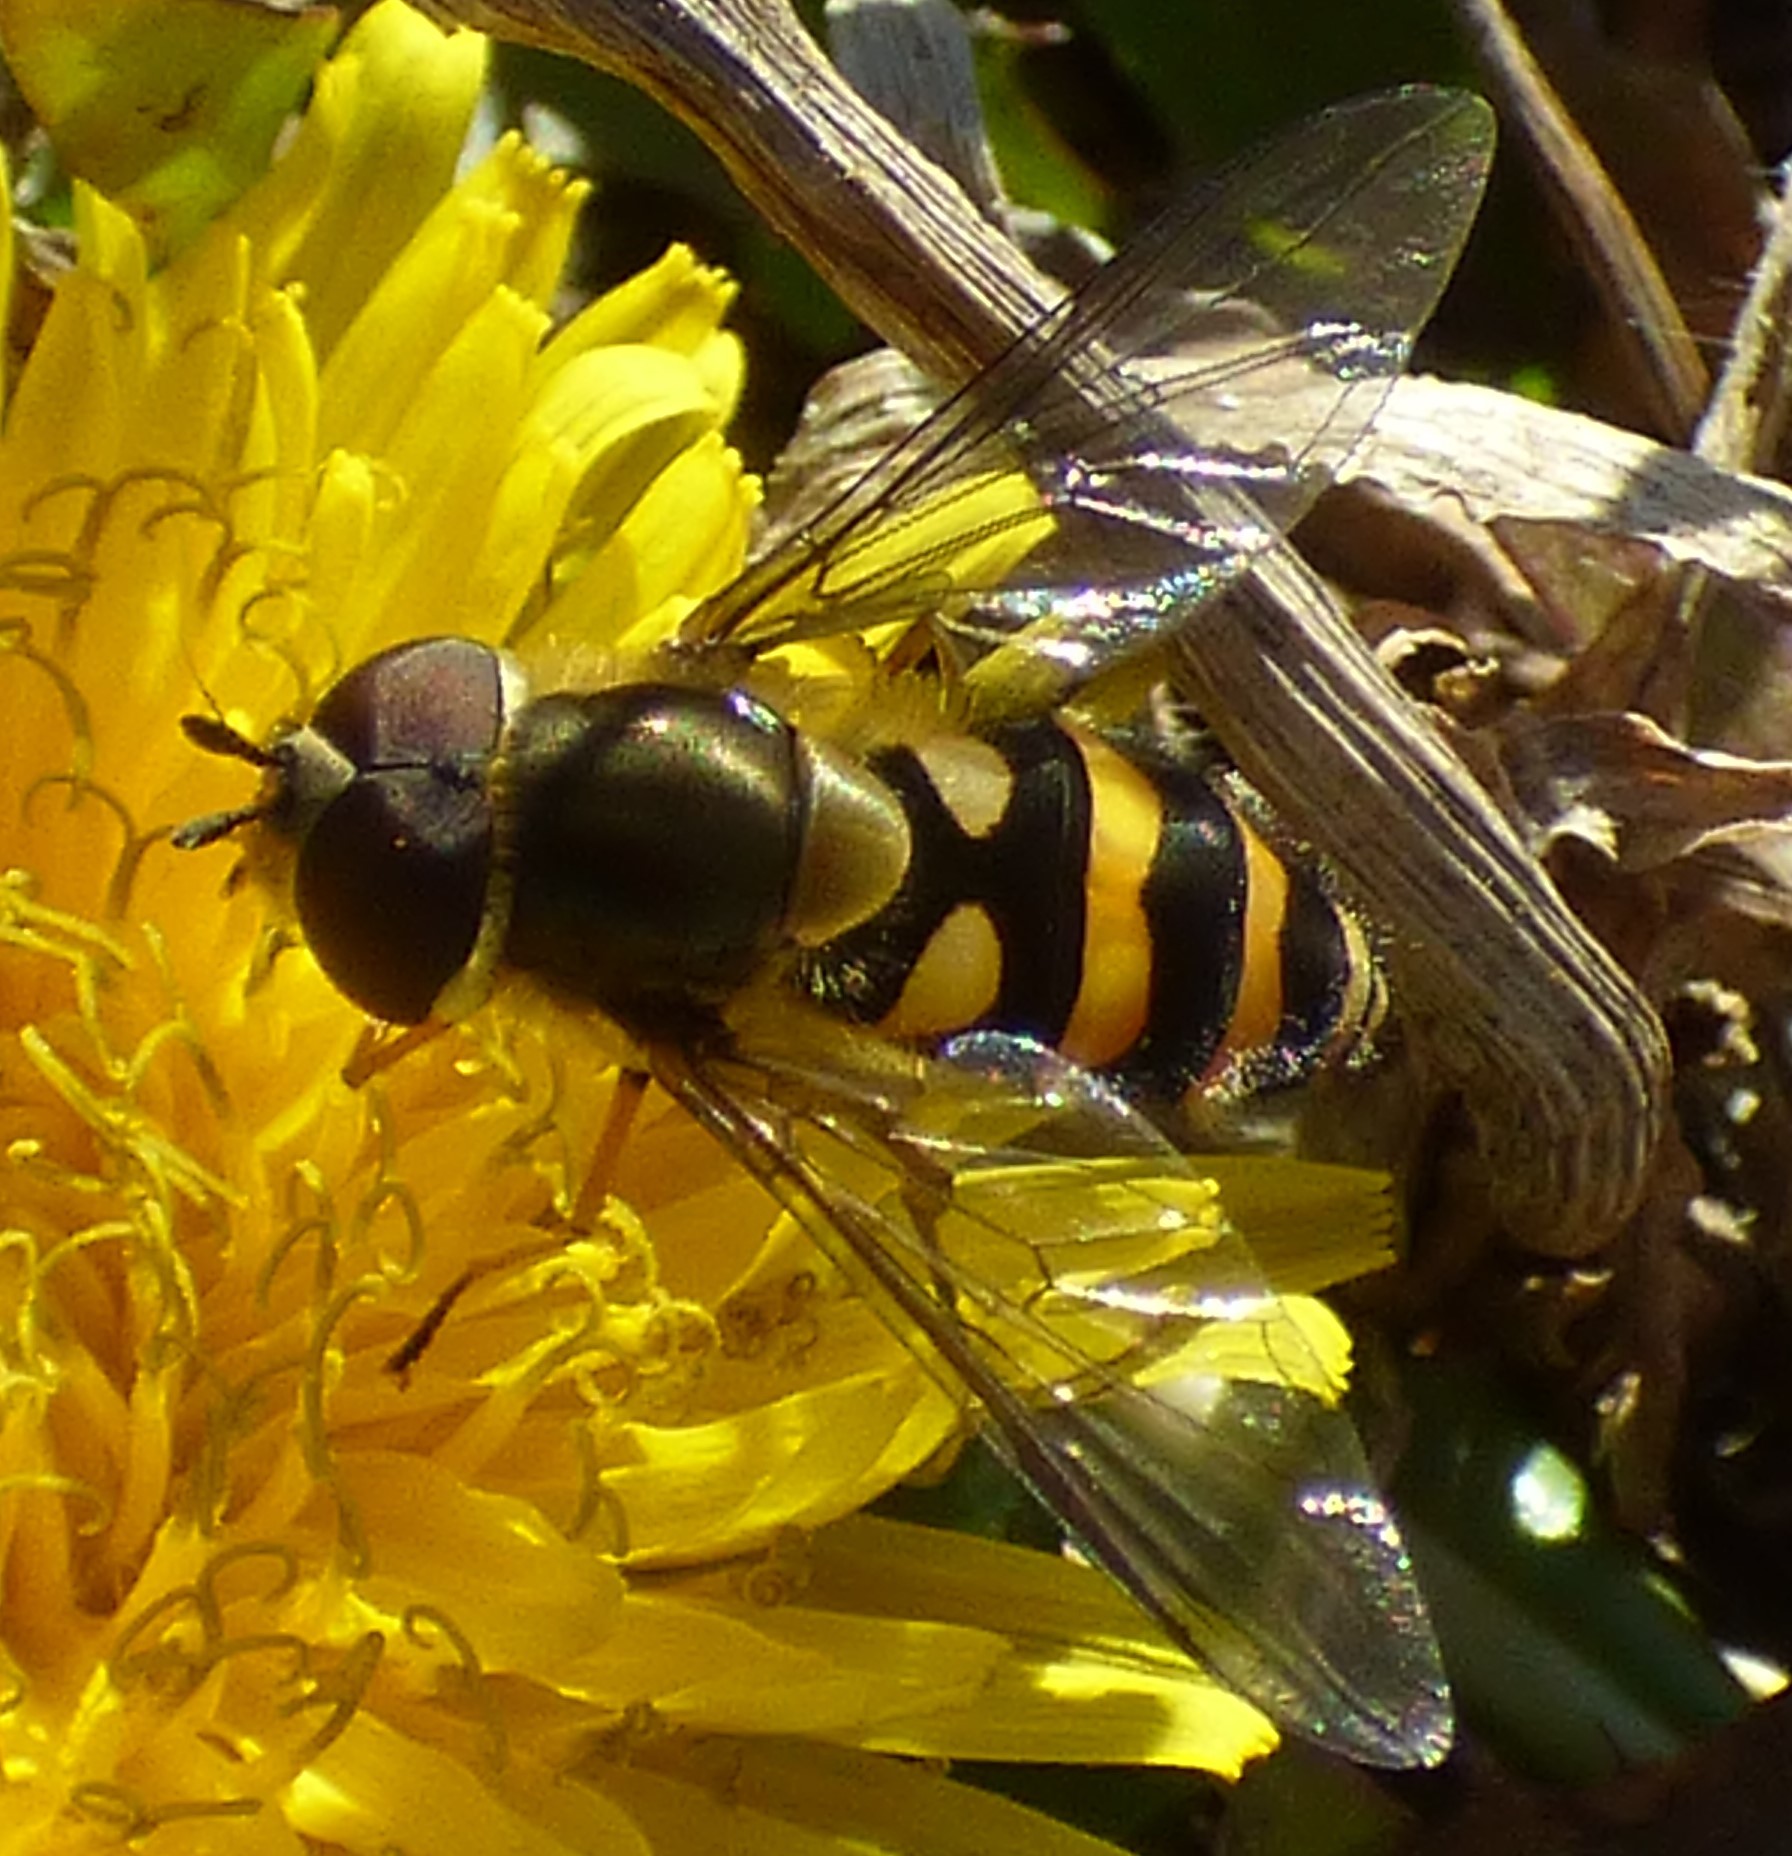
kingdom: Animalia
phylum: Arthropoda
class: Insecta
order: Diptera
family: Syrphidae
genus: Syrphus
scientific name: Syrphus
